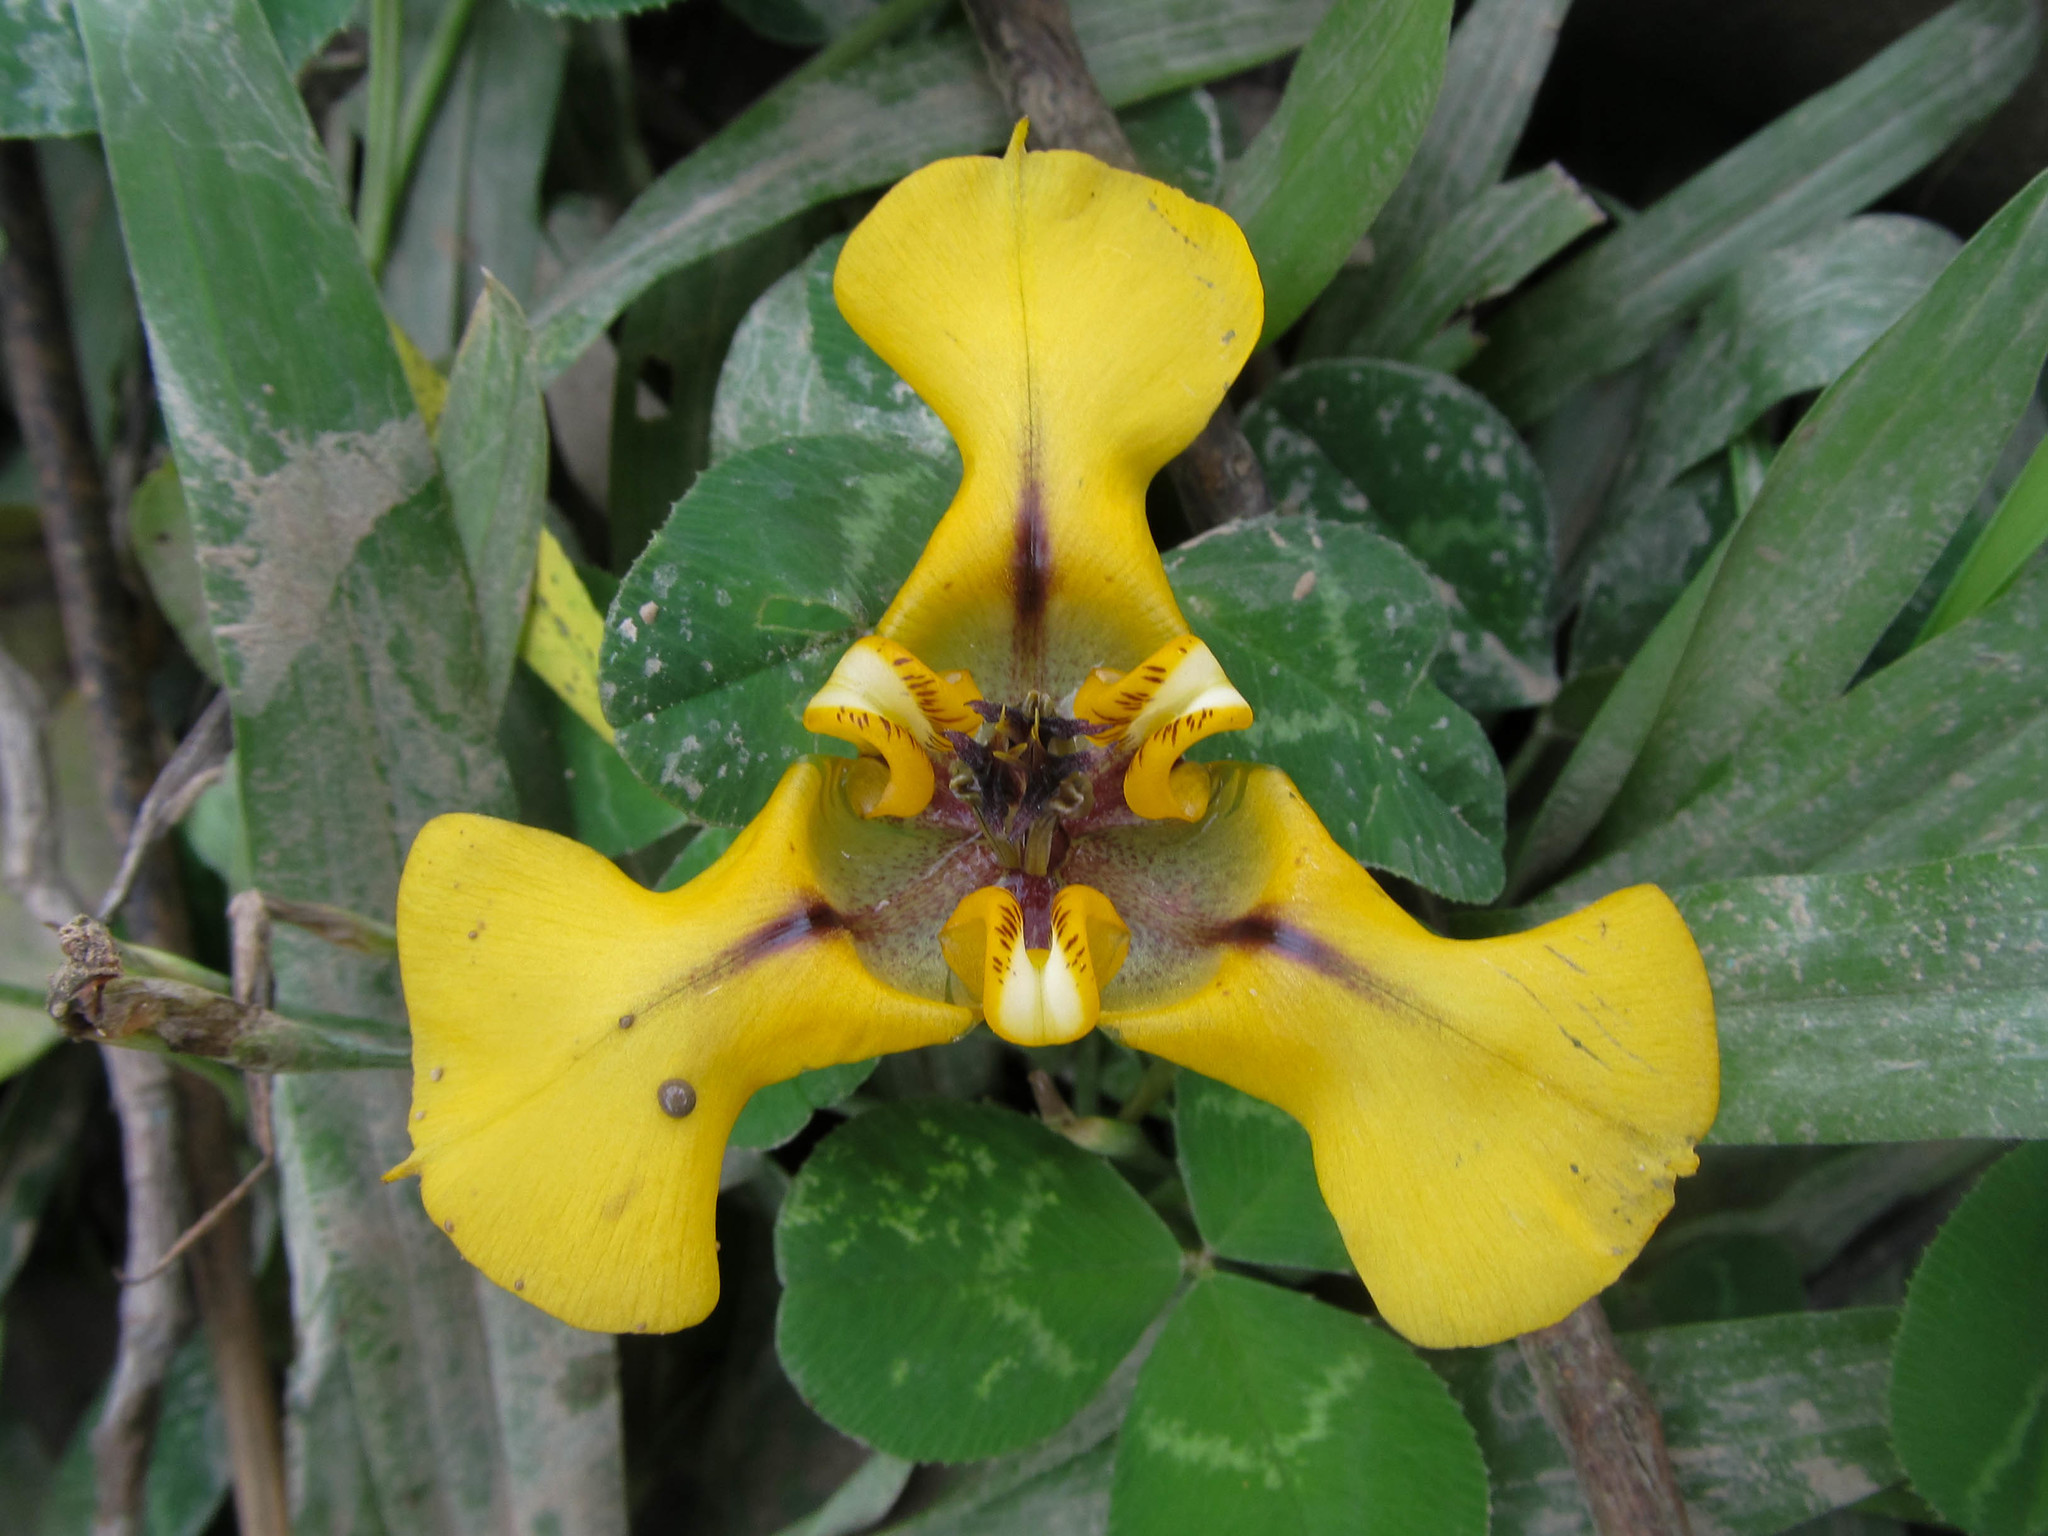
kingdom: Plantae
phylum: Tracheophyta
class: Liliopsida
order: Asparagales
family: Iridaceae
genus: Cypella
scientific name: Cypella herbertii
